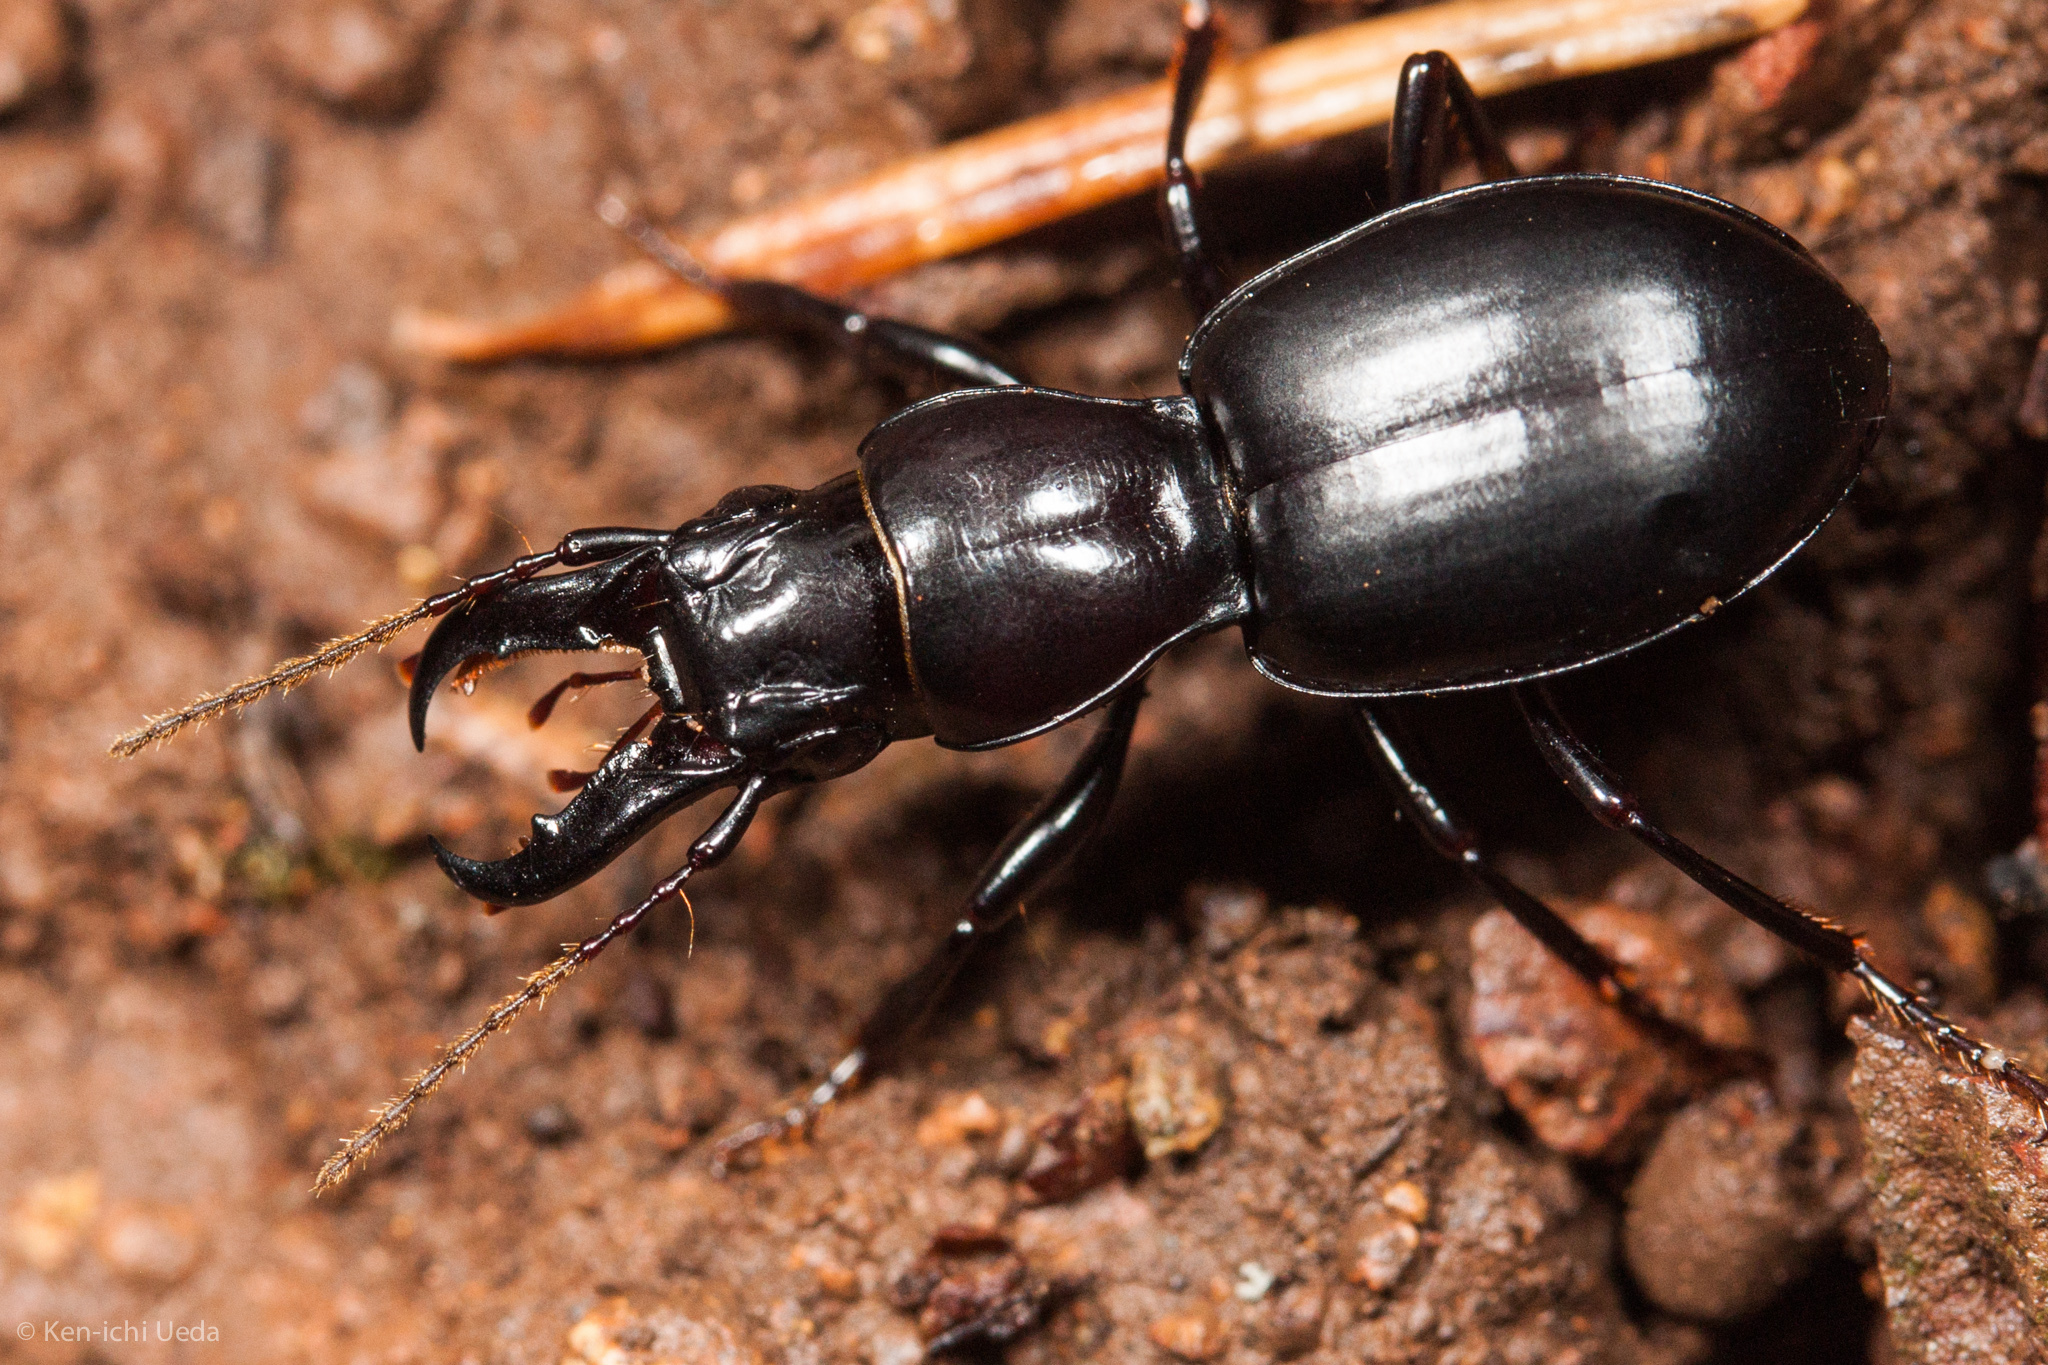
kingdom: Animalia
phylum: Arthropoda
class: Insecta
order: Coleoptera
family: Carabidae
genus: Promecognathus
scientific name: Promecognathus crassus
